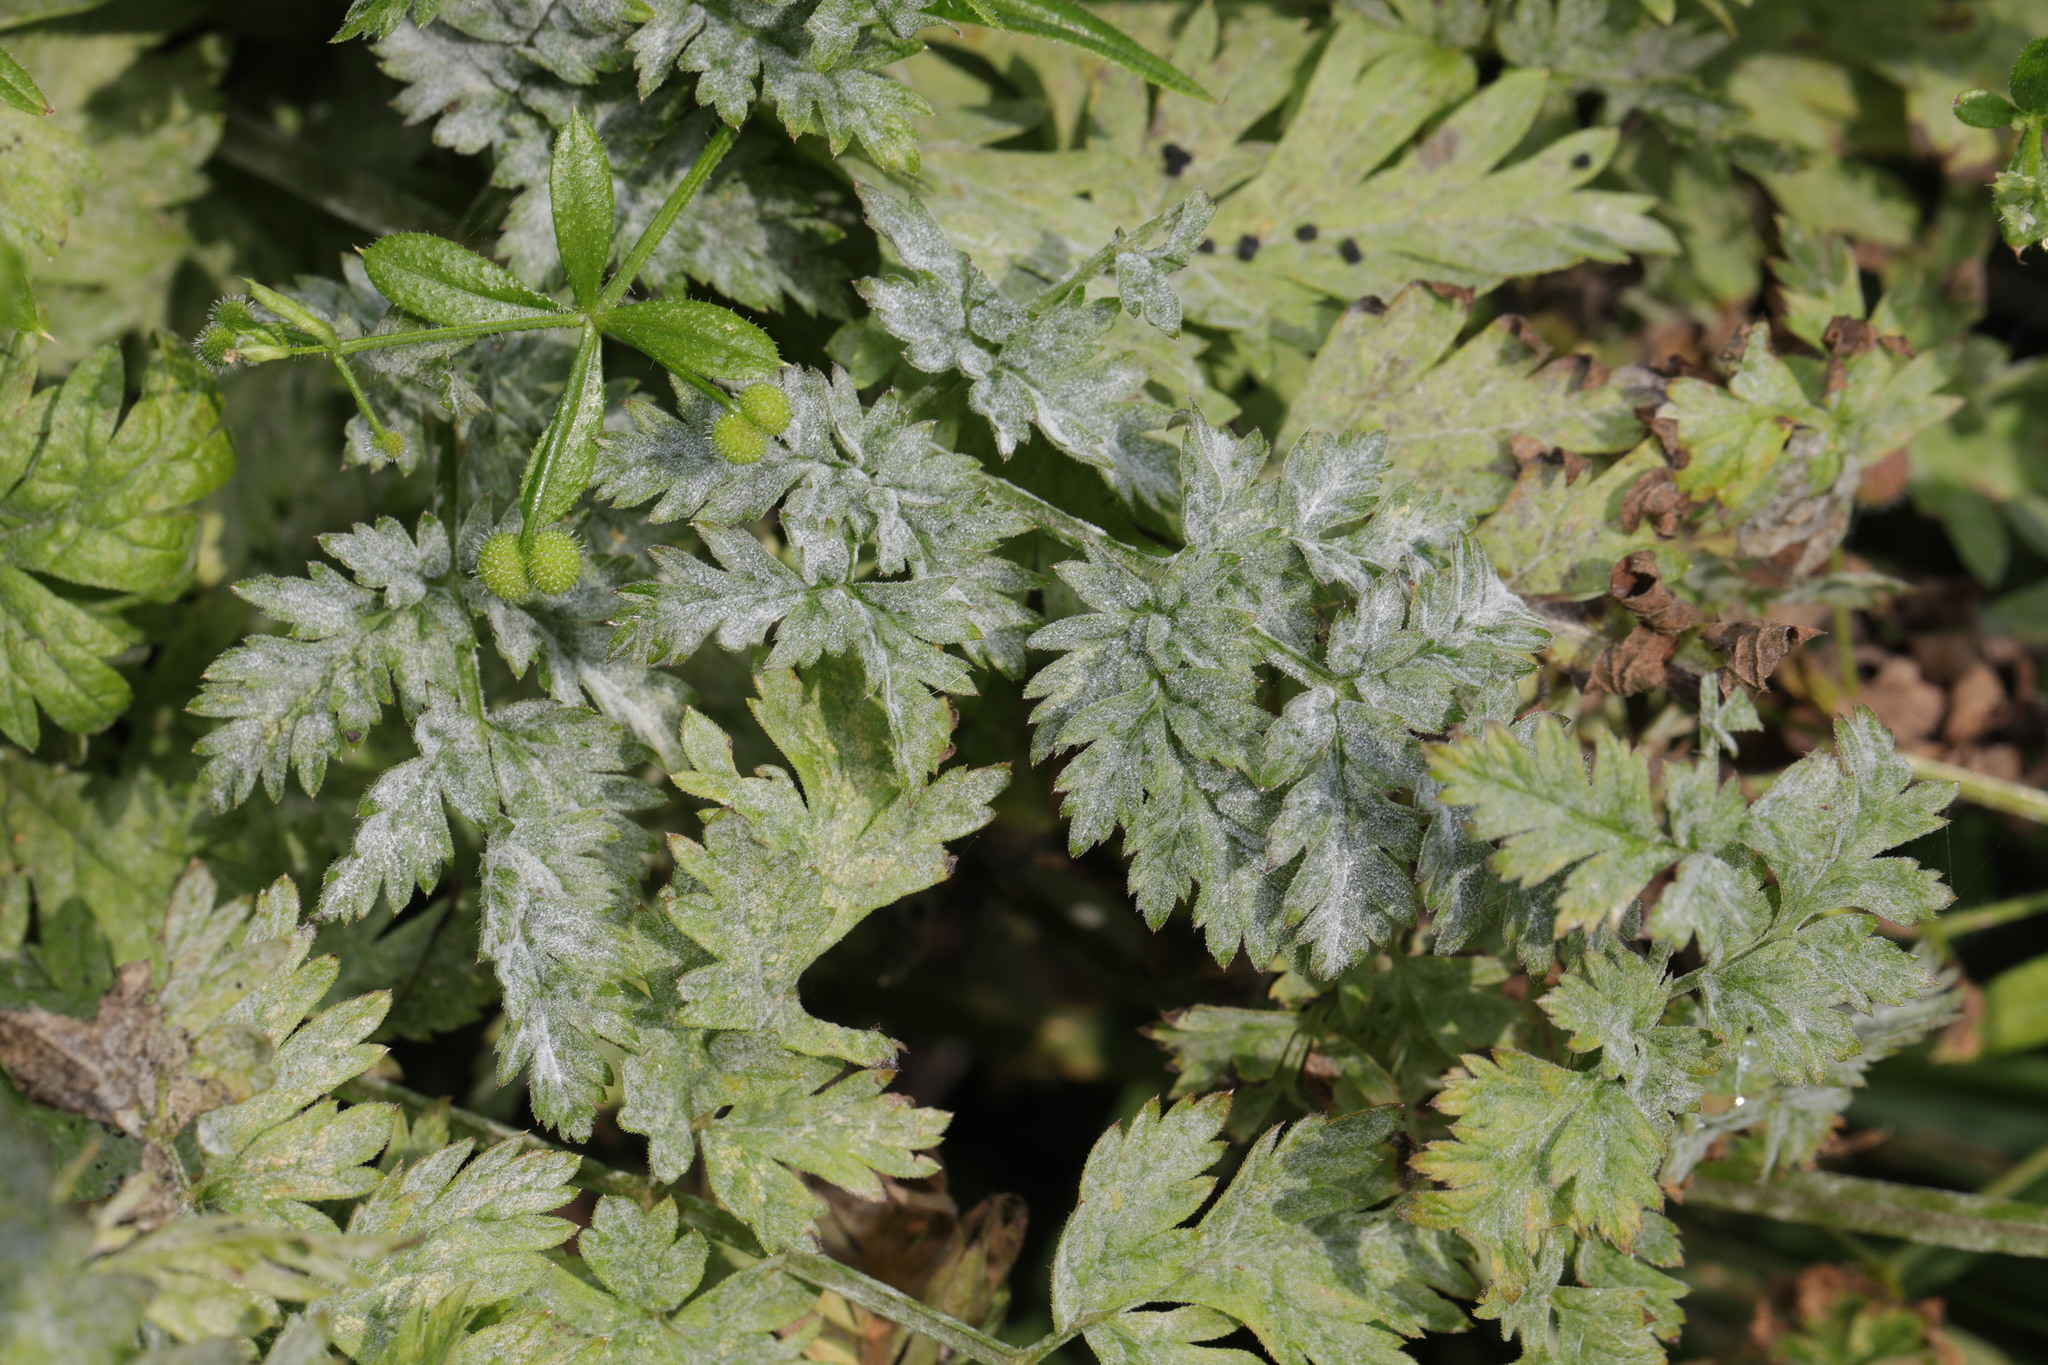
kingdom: Fungi
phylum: Ascomycota
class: Leotiomycetes
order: Helotiales
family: Erysiphaceae
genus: Erysiphe
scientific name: Erysiphe heraclei
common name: Umbellifer mildew
